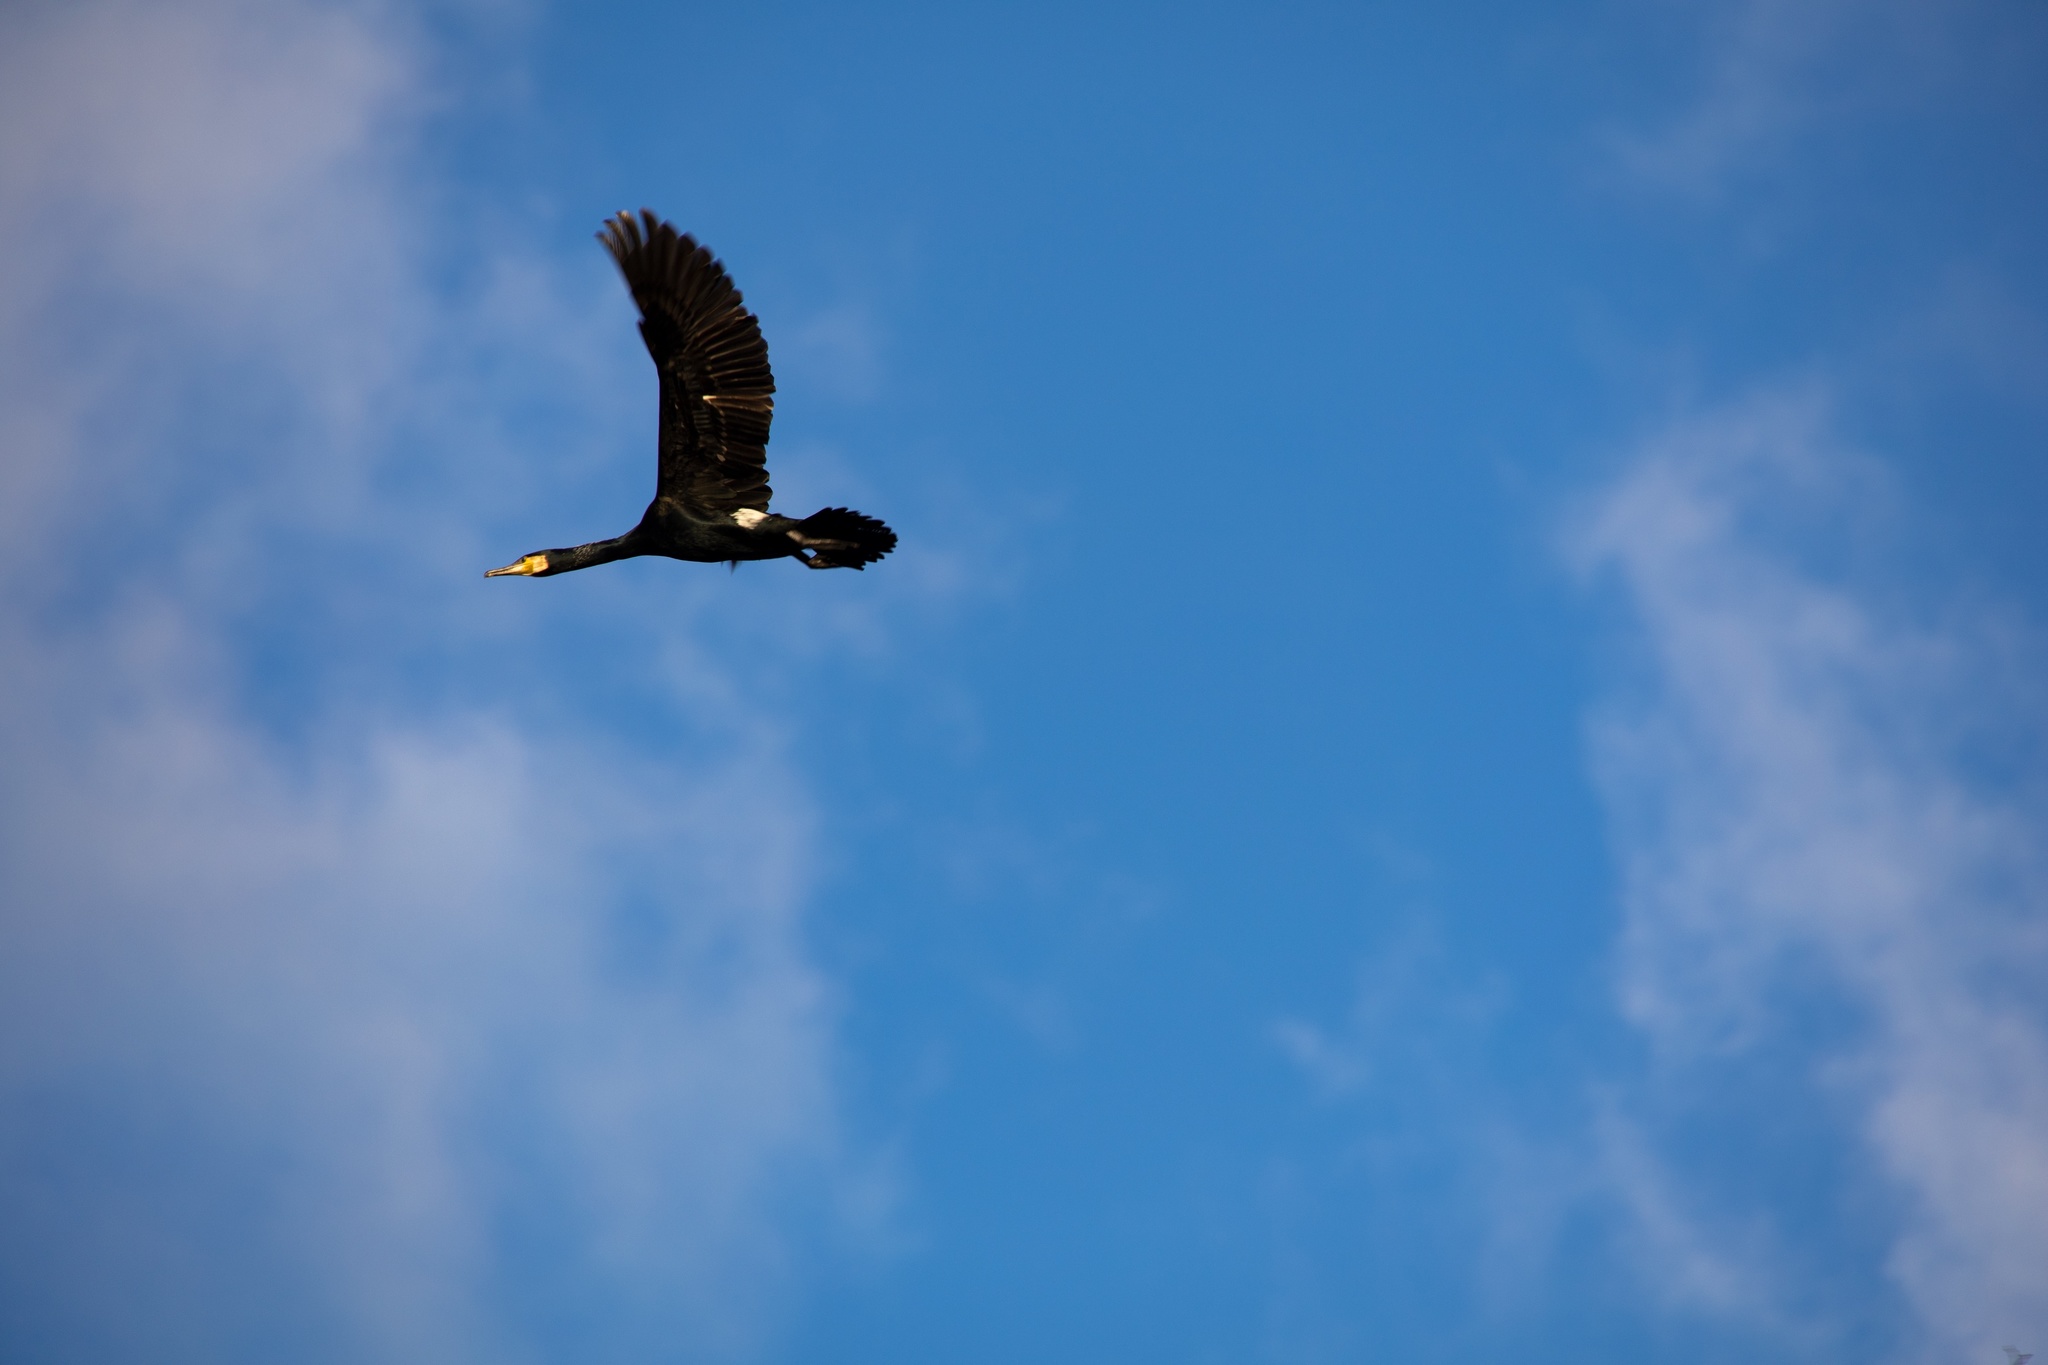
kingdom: Animalia
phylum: Chordata
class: Aves
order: Suliformes
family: Phalacrocoracidae
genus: Phalacrocorax
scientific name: Phalacrocorax carbo
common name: Great cormorant
